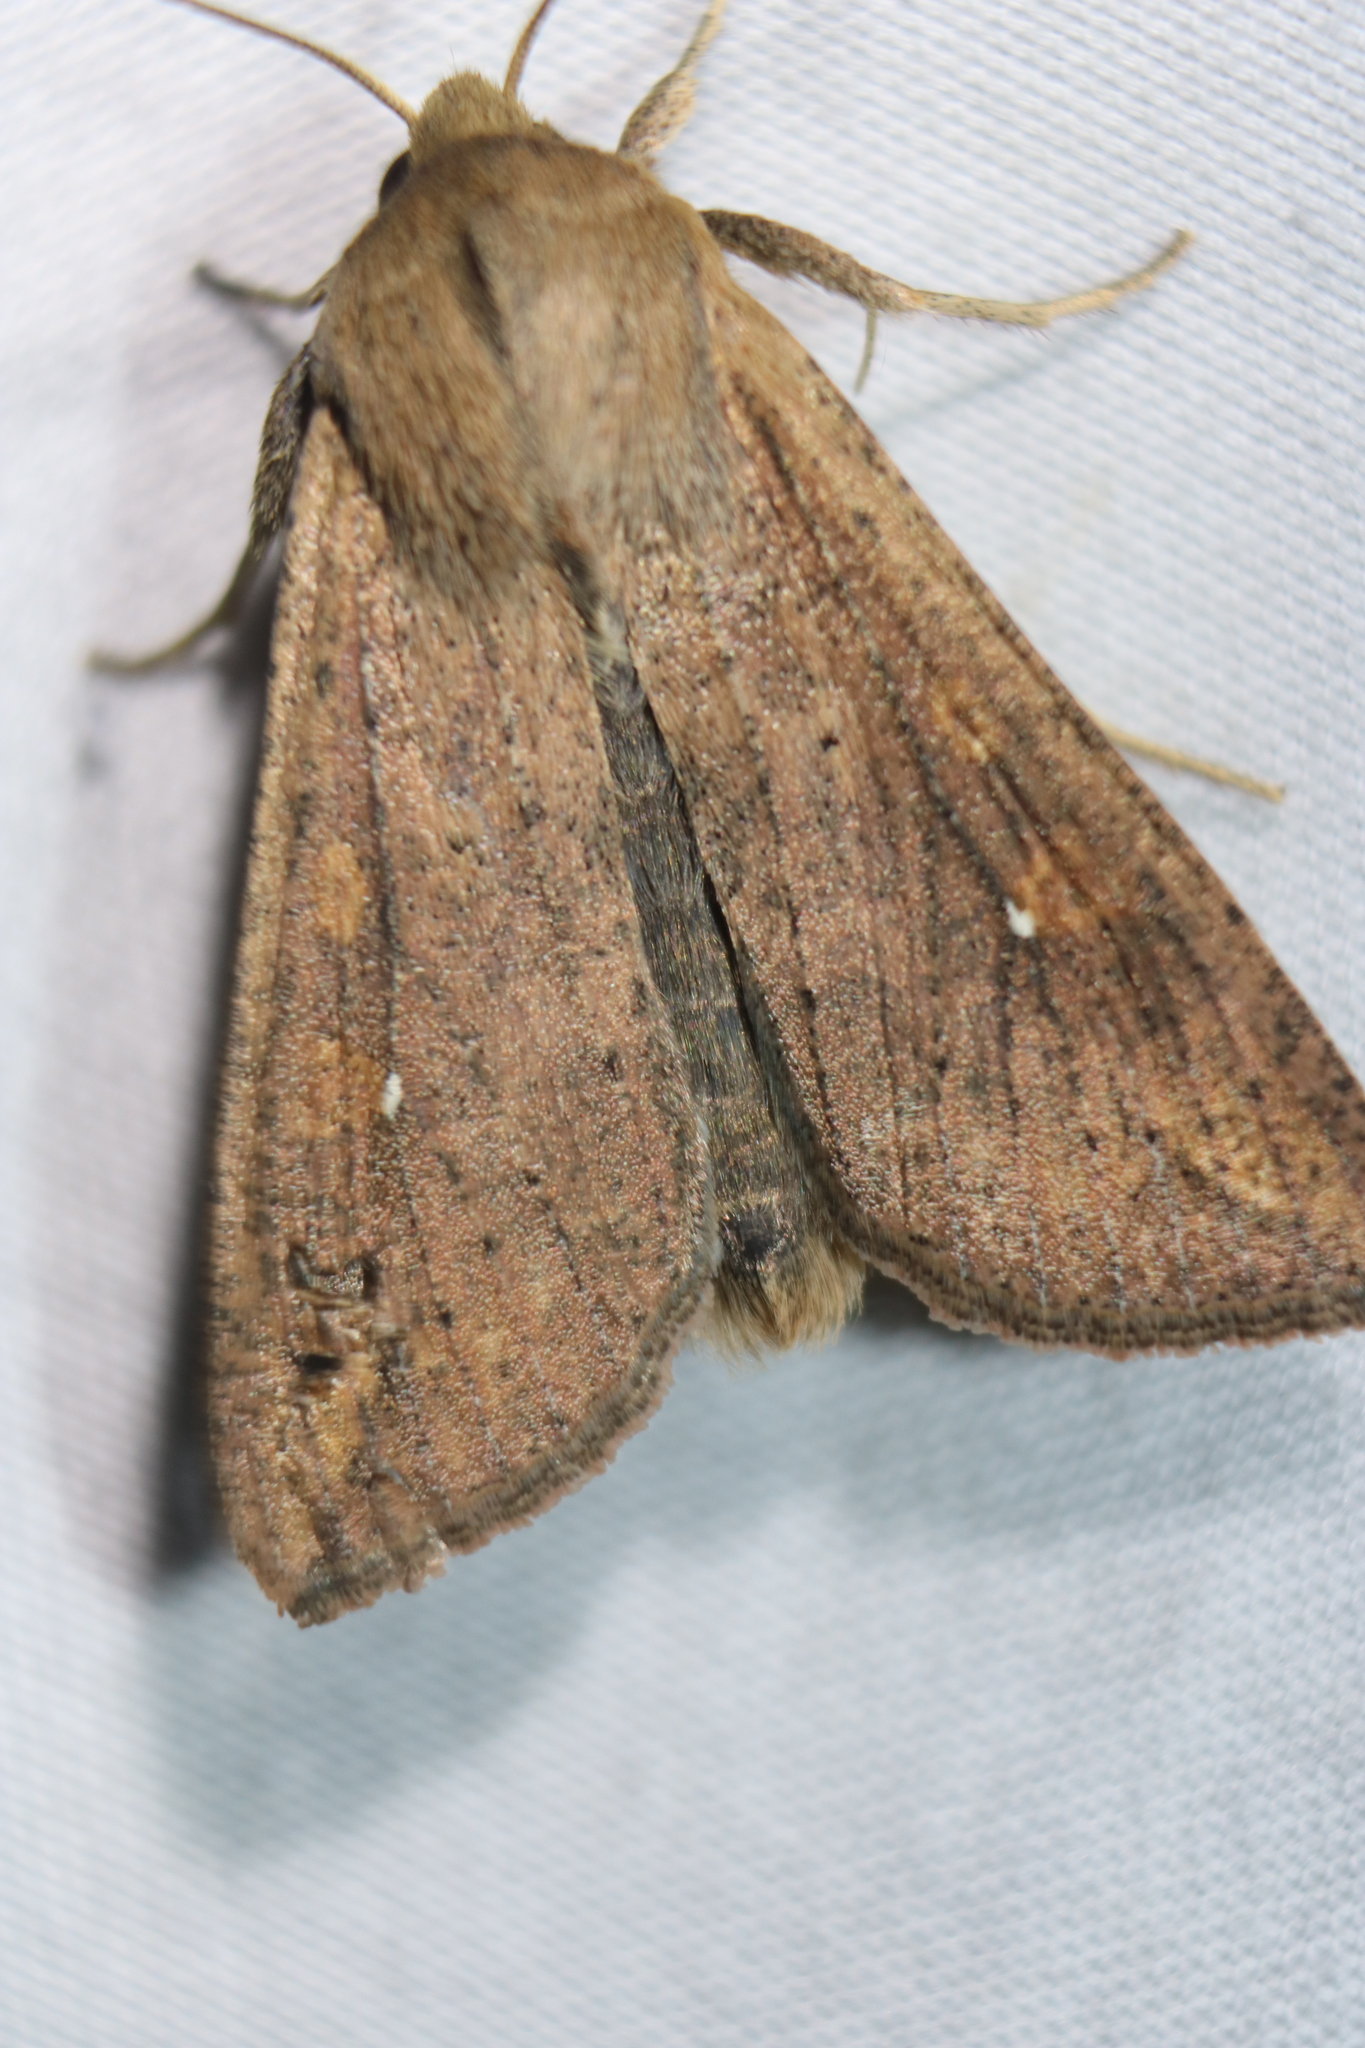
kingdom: Animalia
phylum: Arthropoda
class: Insecta
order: Lepidoptera
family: Noctuidae
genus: Mythimna
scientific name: Mythimna unipuncta
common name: White-speck
